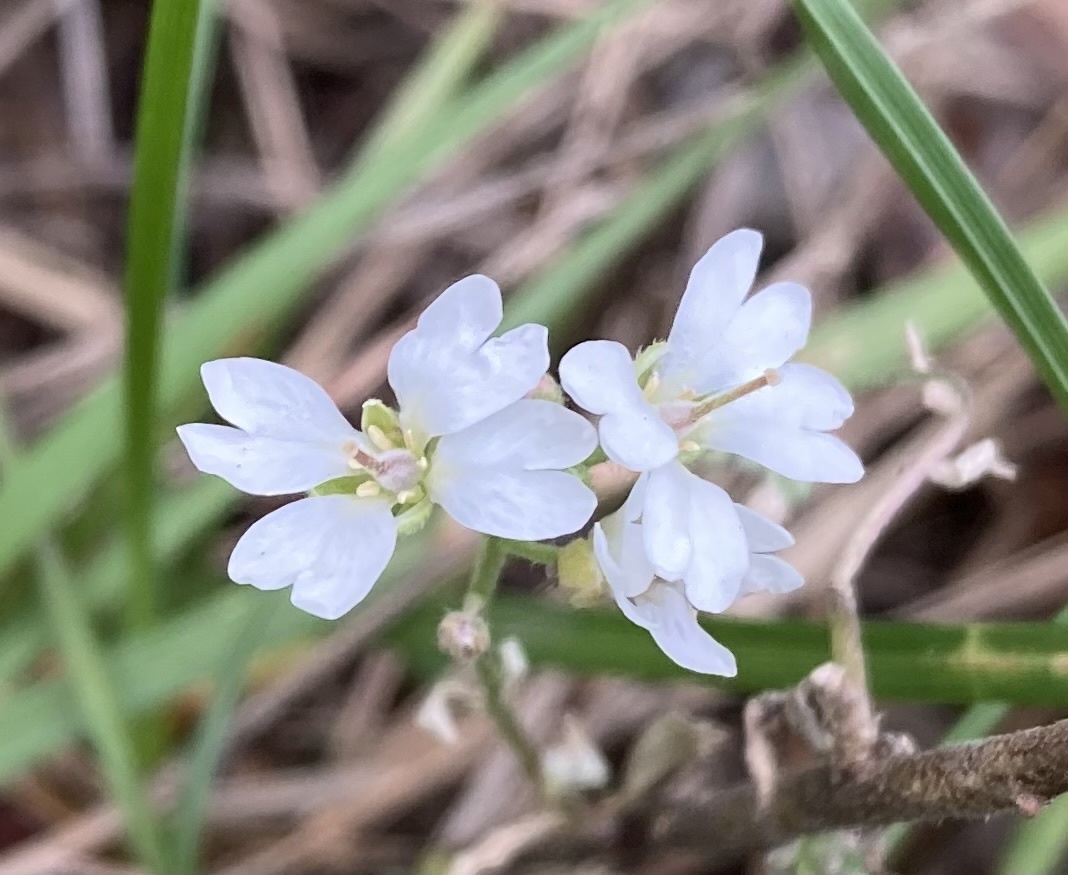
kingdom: Plantae
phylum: Tracheophyta
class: Magnoliopsida
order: Brassicales
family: Brassicaceae
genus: Berteroa
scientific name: Berteroa incana
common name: Hoary alison
